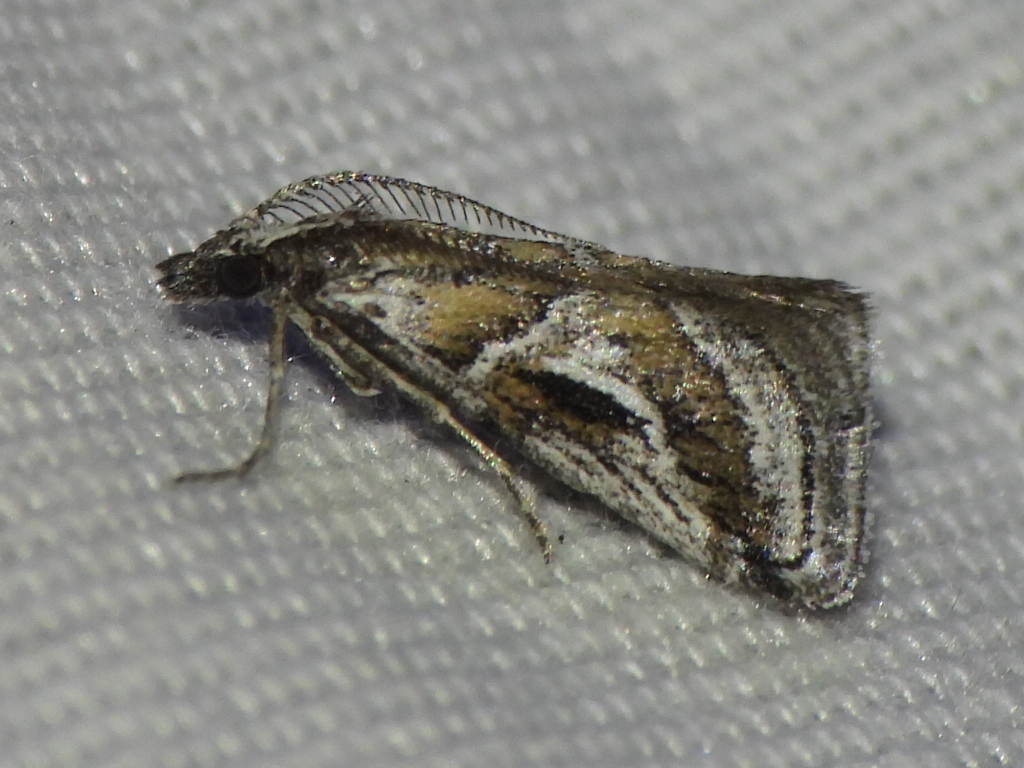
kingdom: Animalia
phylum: Arthropoda
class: Insecta
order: Lepidoptera
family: Pyralidae
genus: Alpheias
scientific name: Alpheias Decaturia pectinalis
